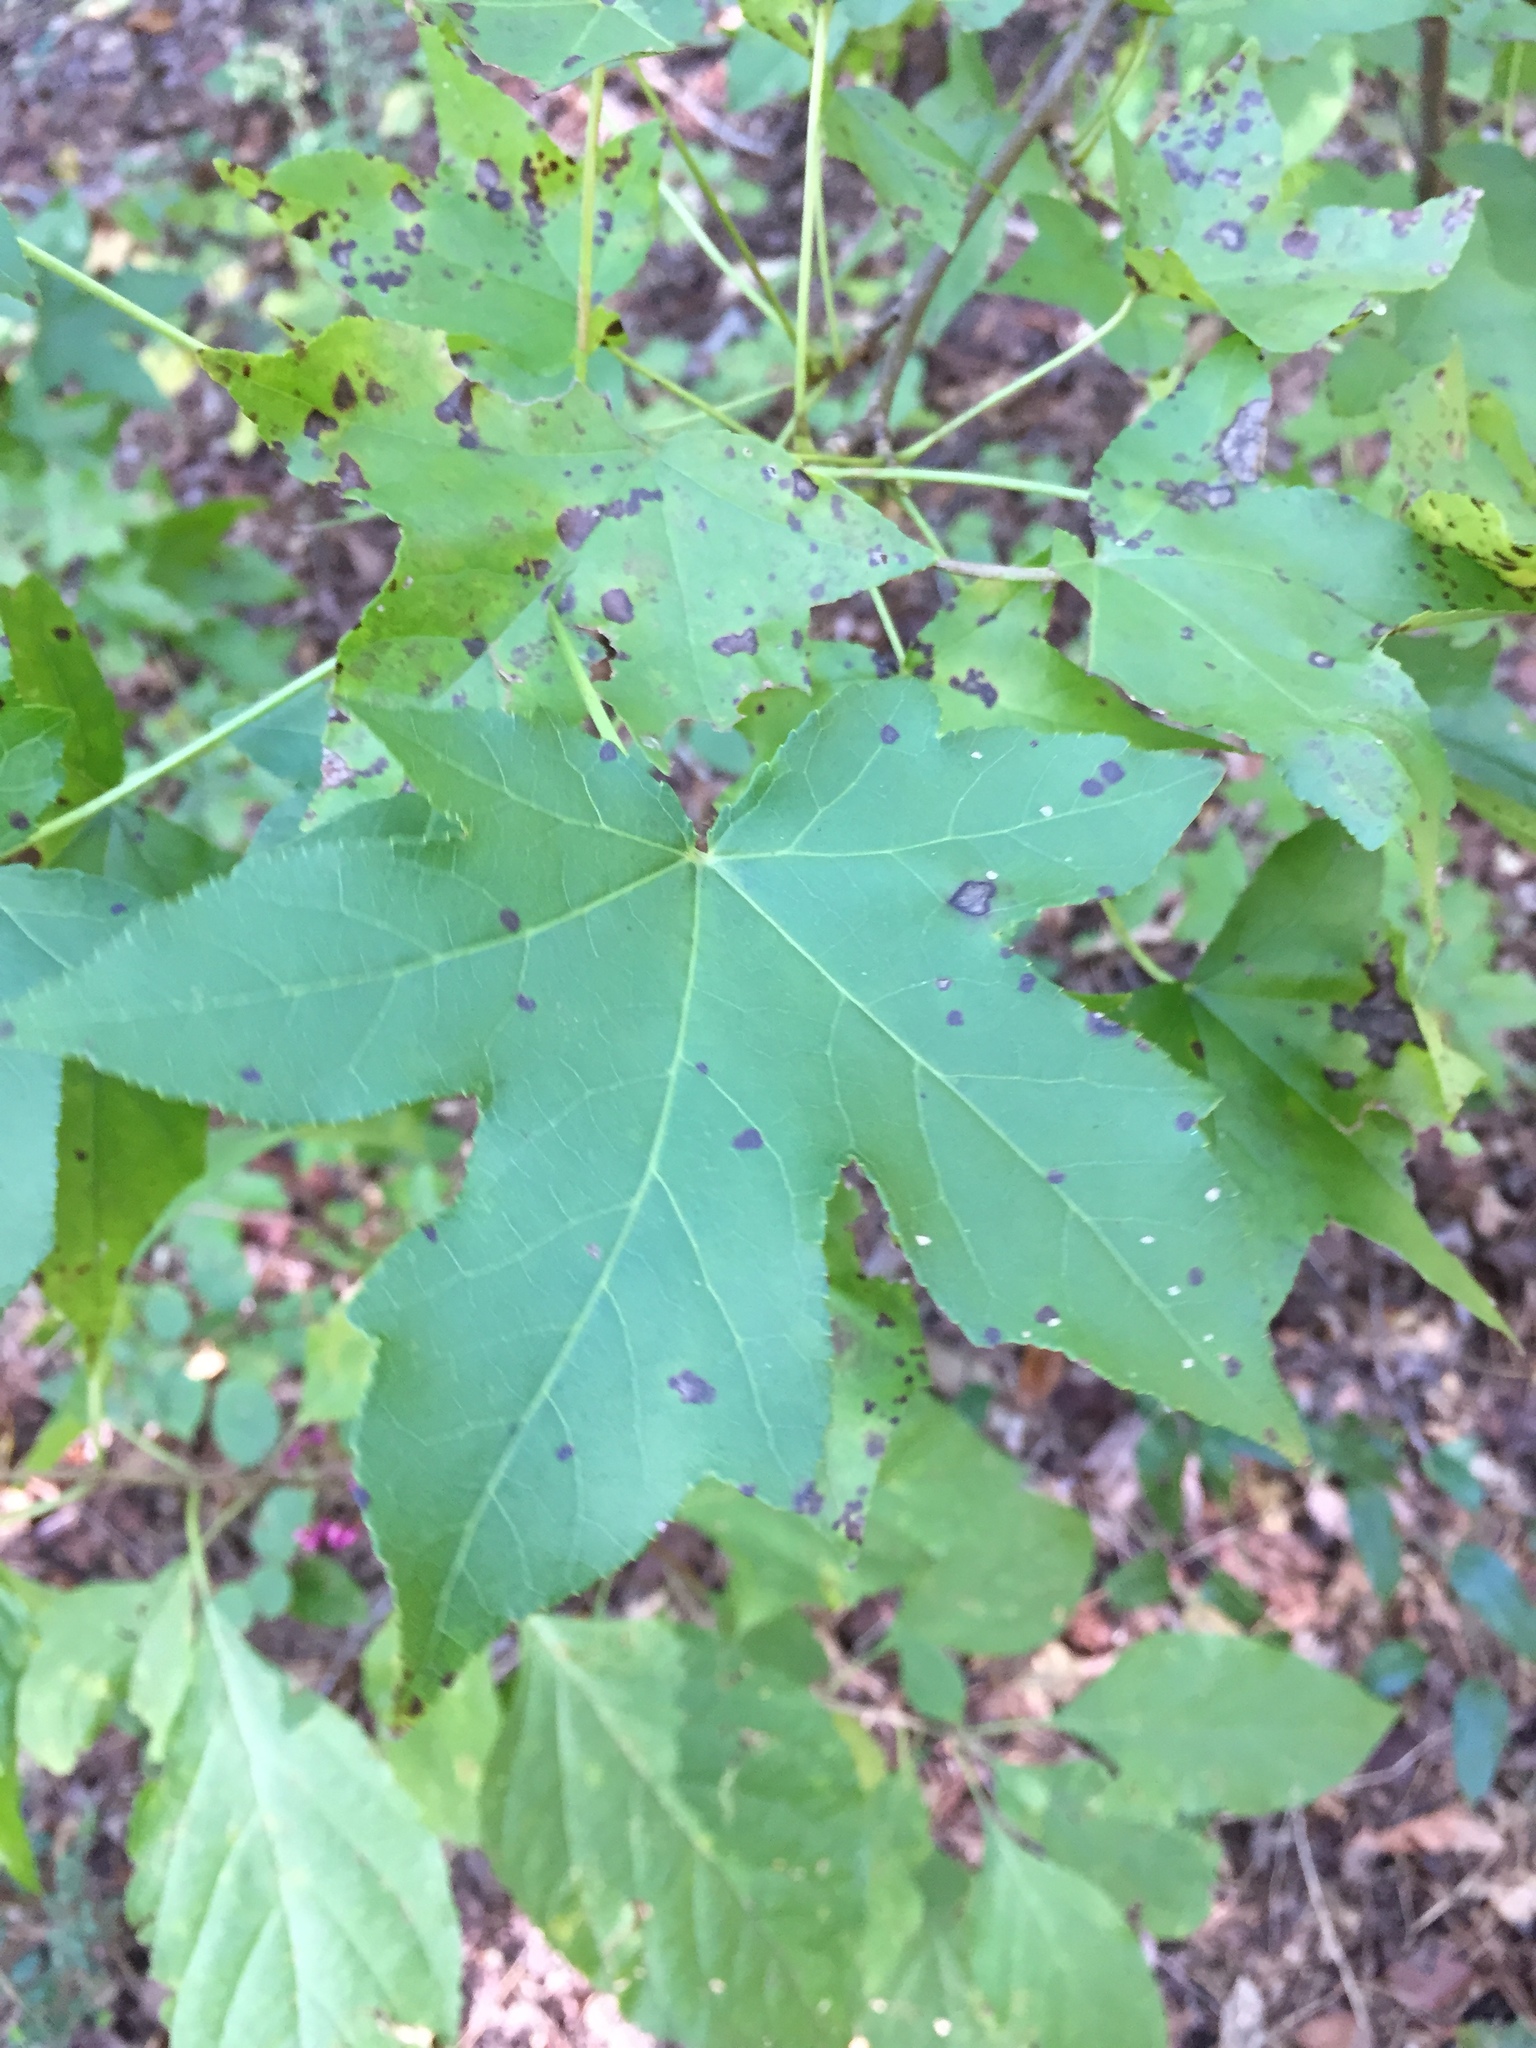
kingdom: Plantae
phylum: Tracheophyta
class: Magnoliopsida
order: Saxifragales
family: Altingiaceae
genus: Liquidambar
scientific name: Liquidambar styraciflua
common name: Sweet gum
